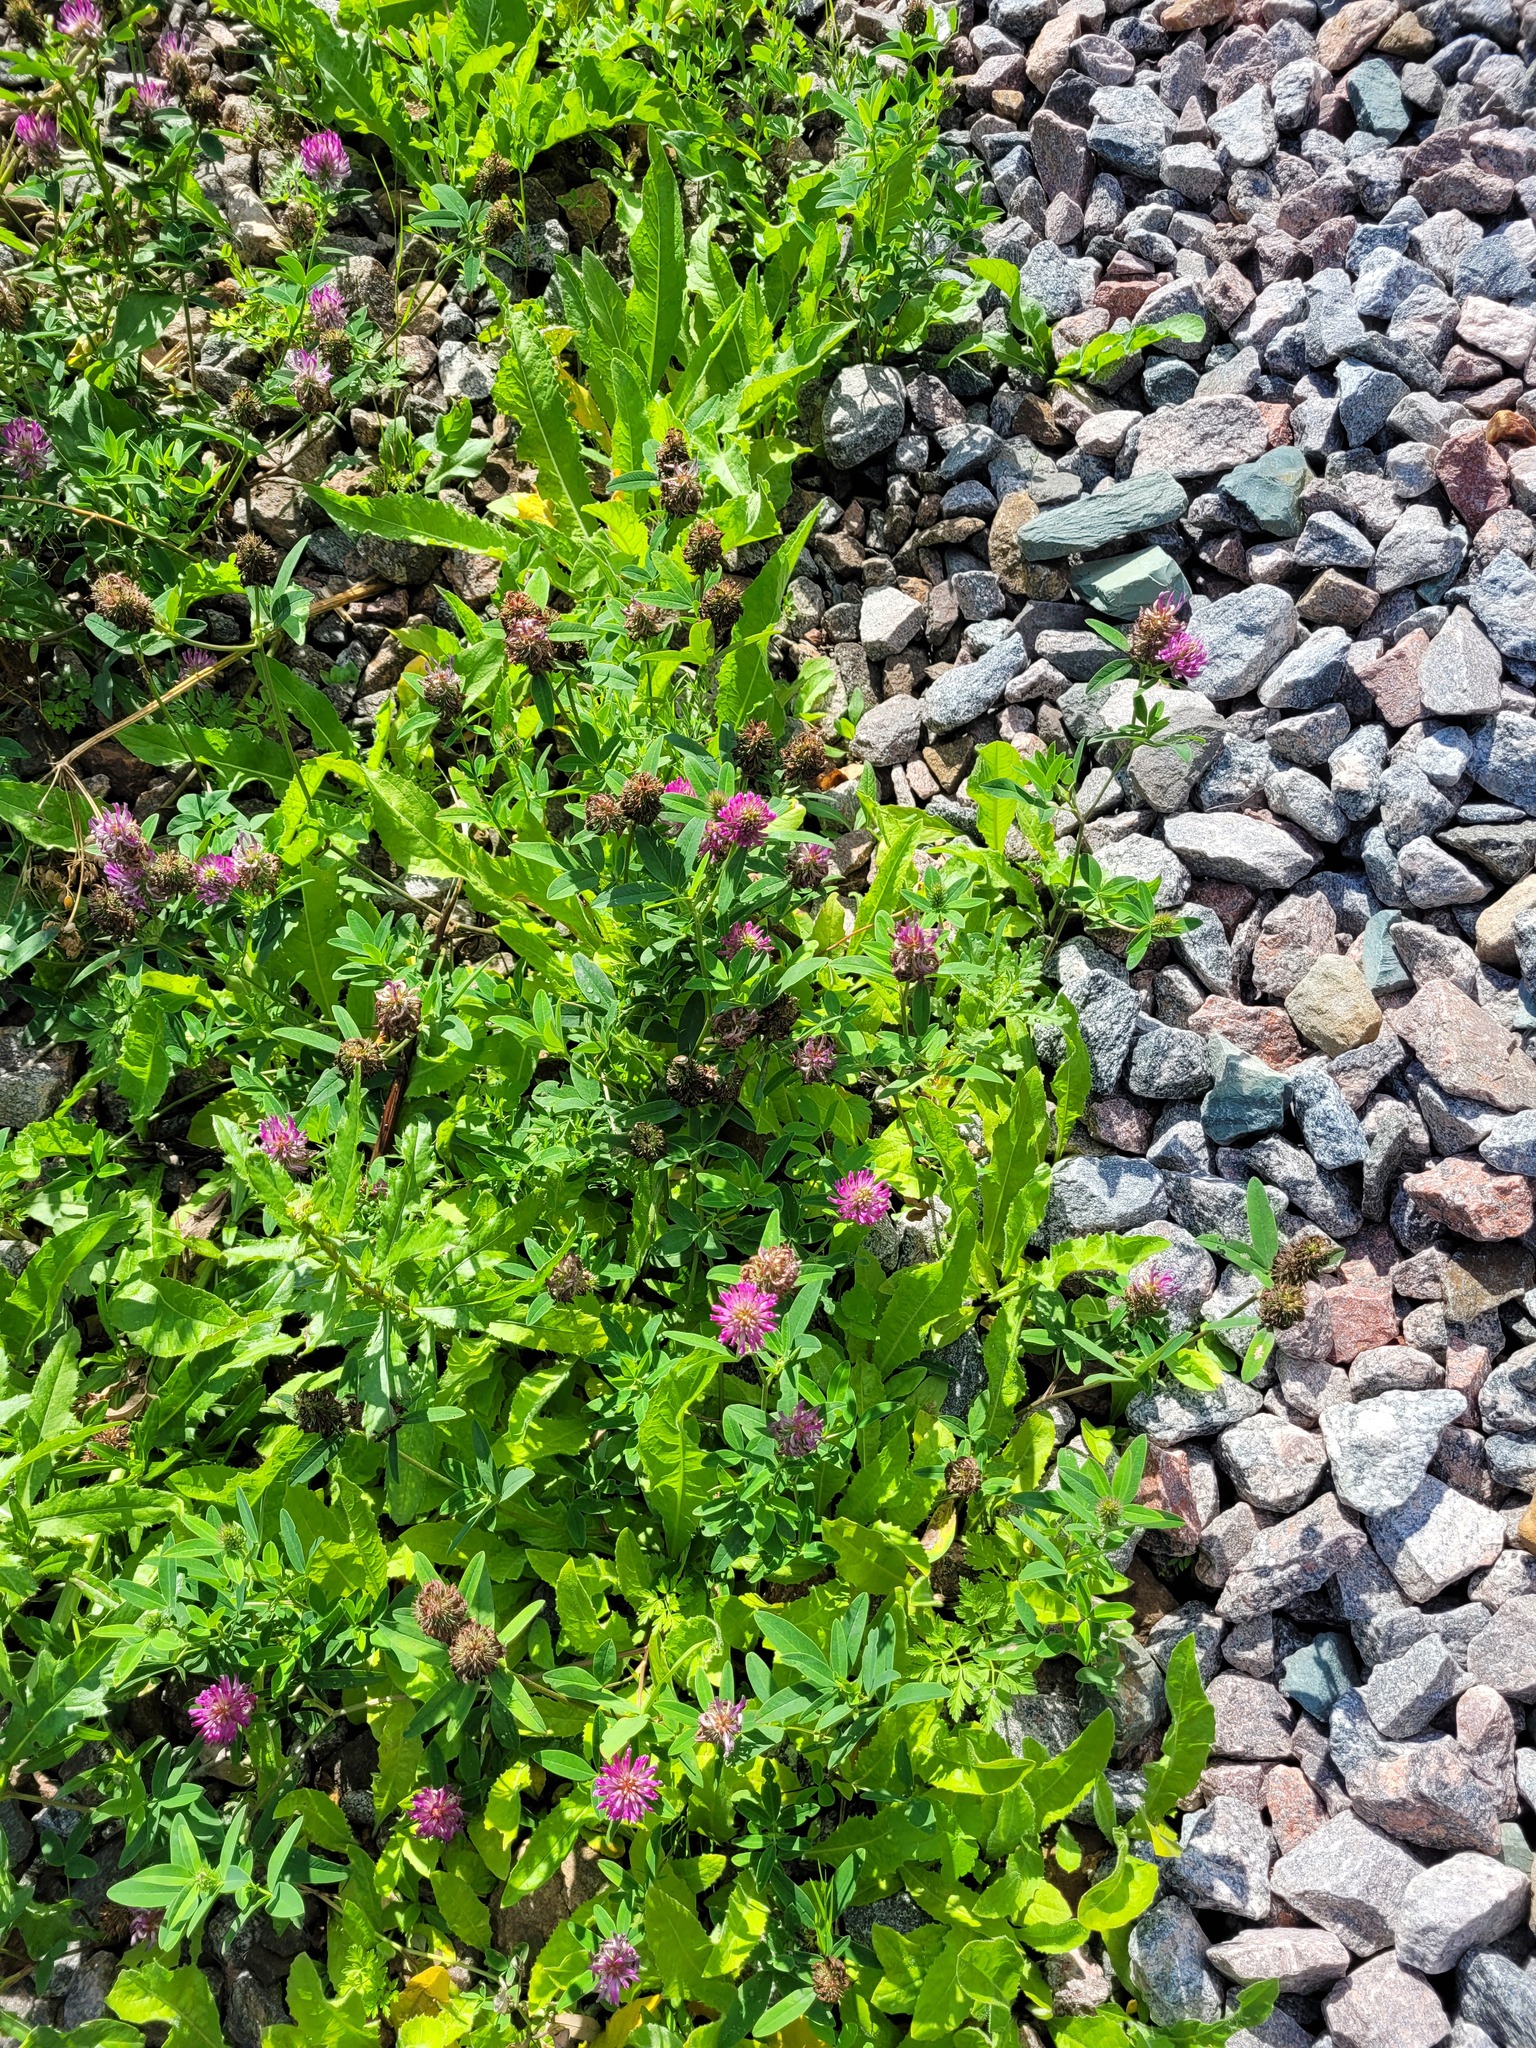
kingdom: Plantae
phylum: Tracheophyta
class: Magnoliopsida
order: Fabales
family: Fabaceae
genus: Trifolium
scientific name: Trifolium medium
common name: Zigzag clover
